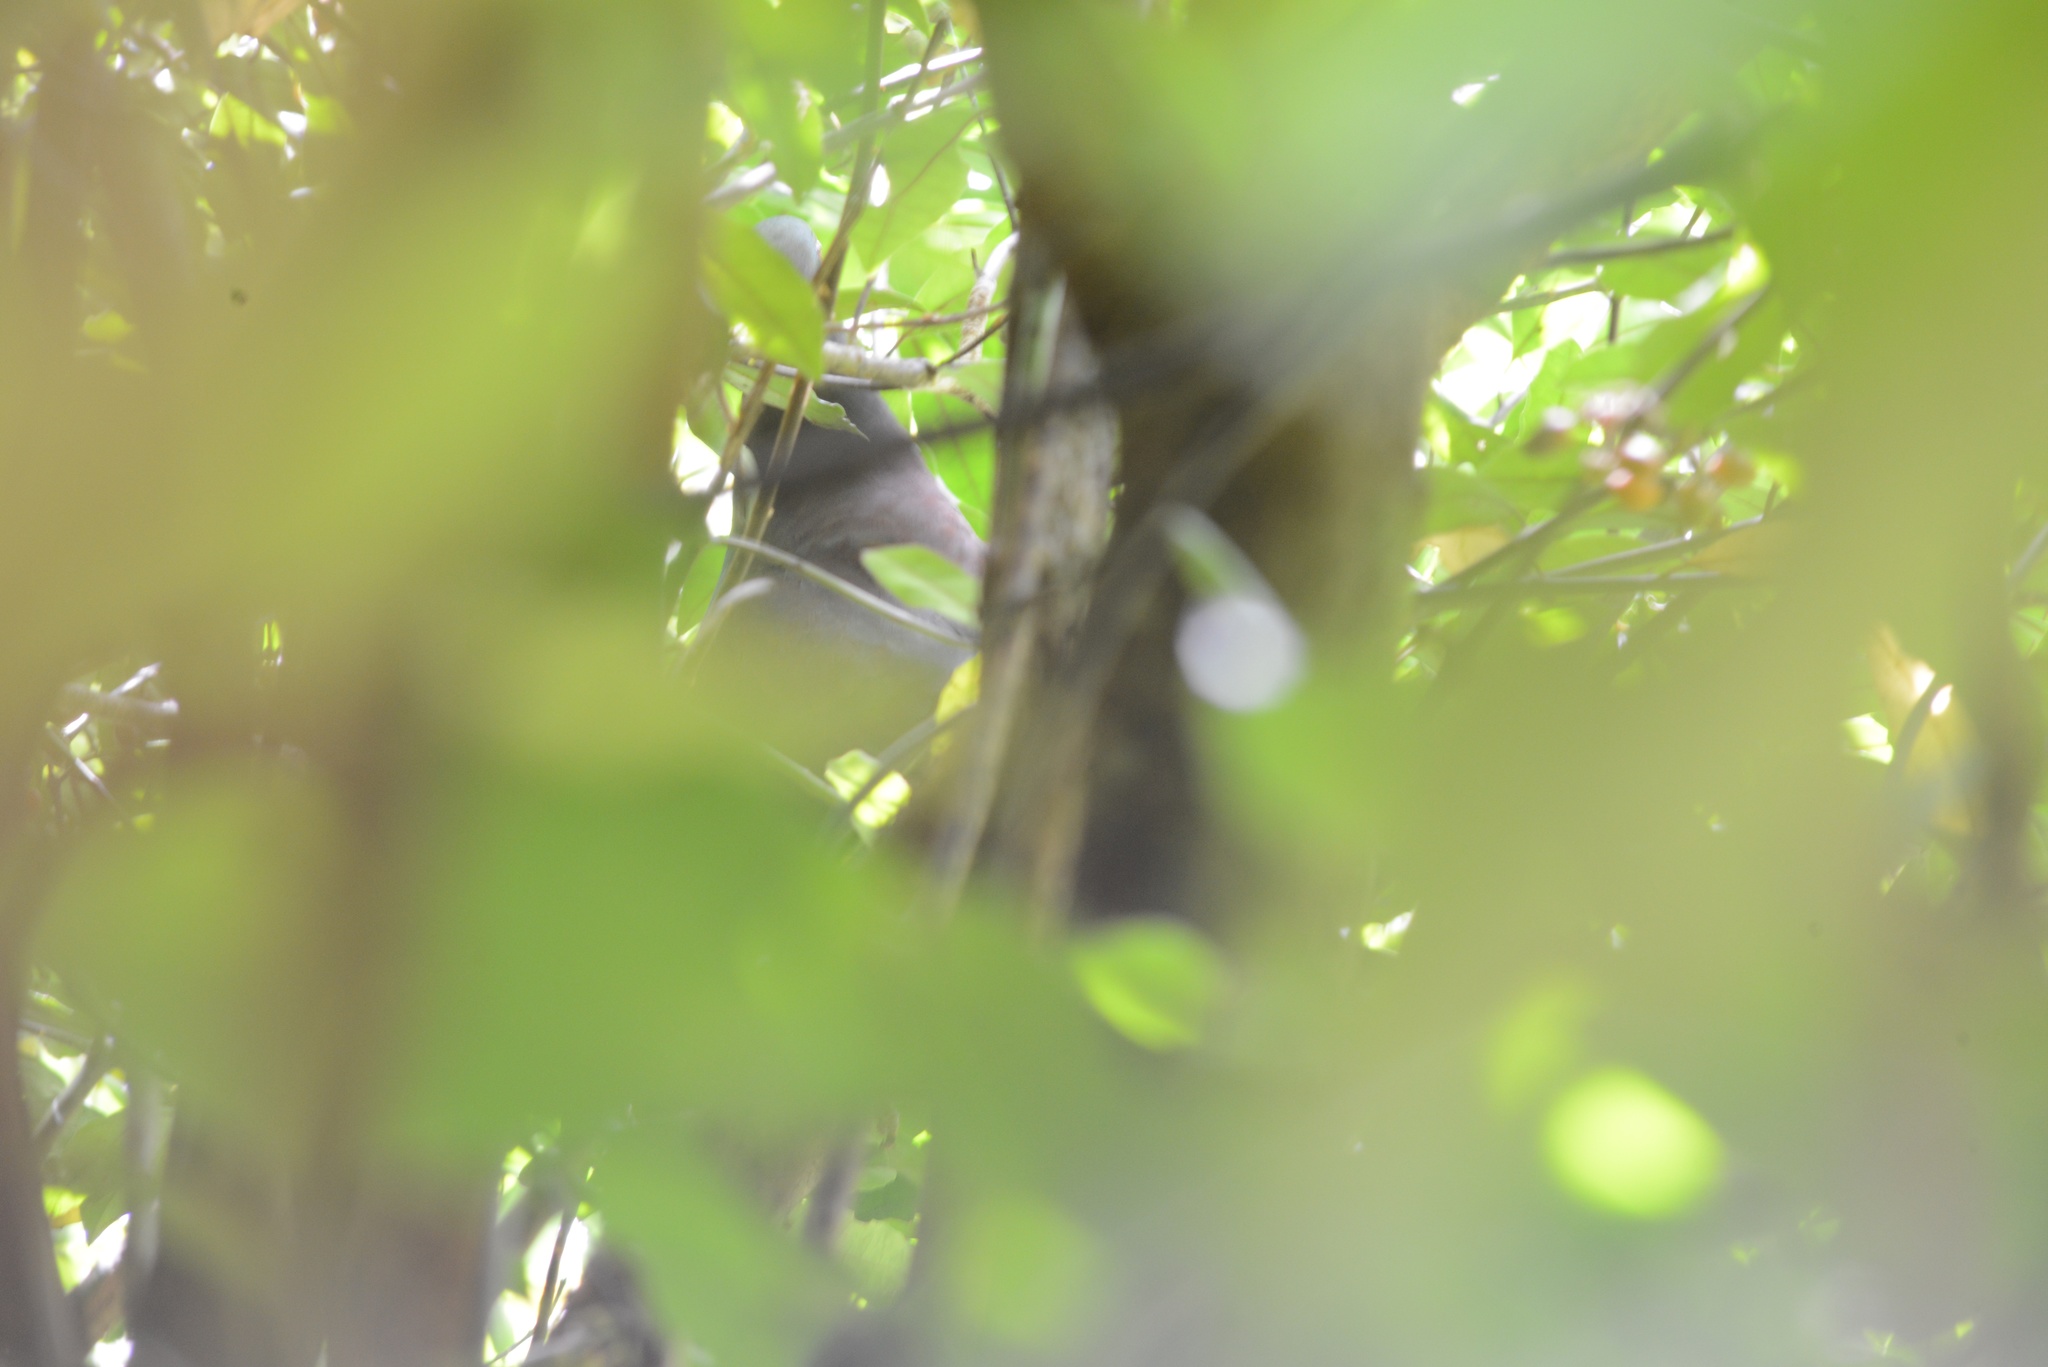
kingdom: Animalia
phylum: Chordata
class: Aves
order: Columbiformes
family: Columbidae
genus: Hemiphaga
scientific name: Hemiphaga novaeseelandiae
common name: New zealand pigeon
